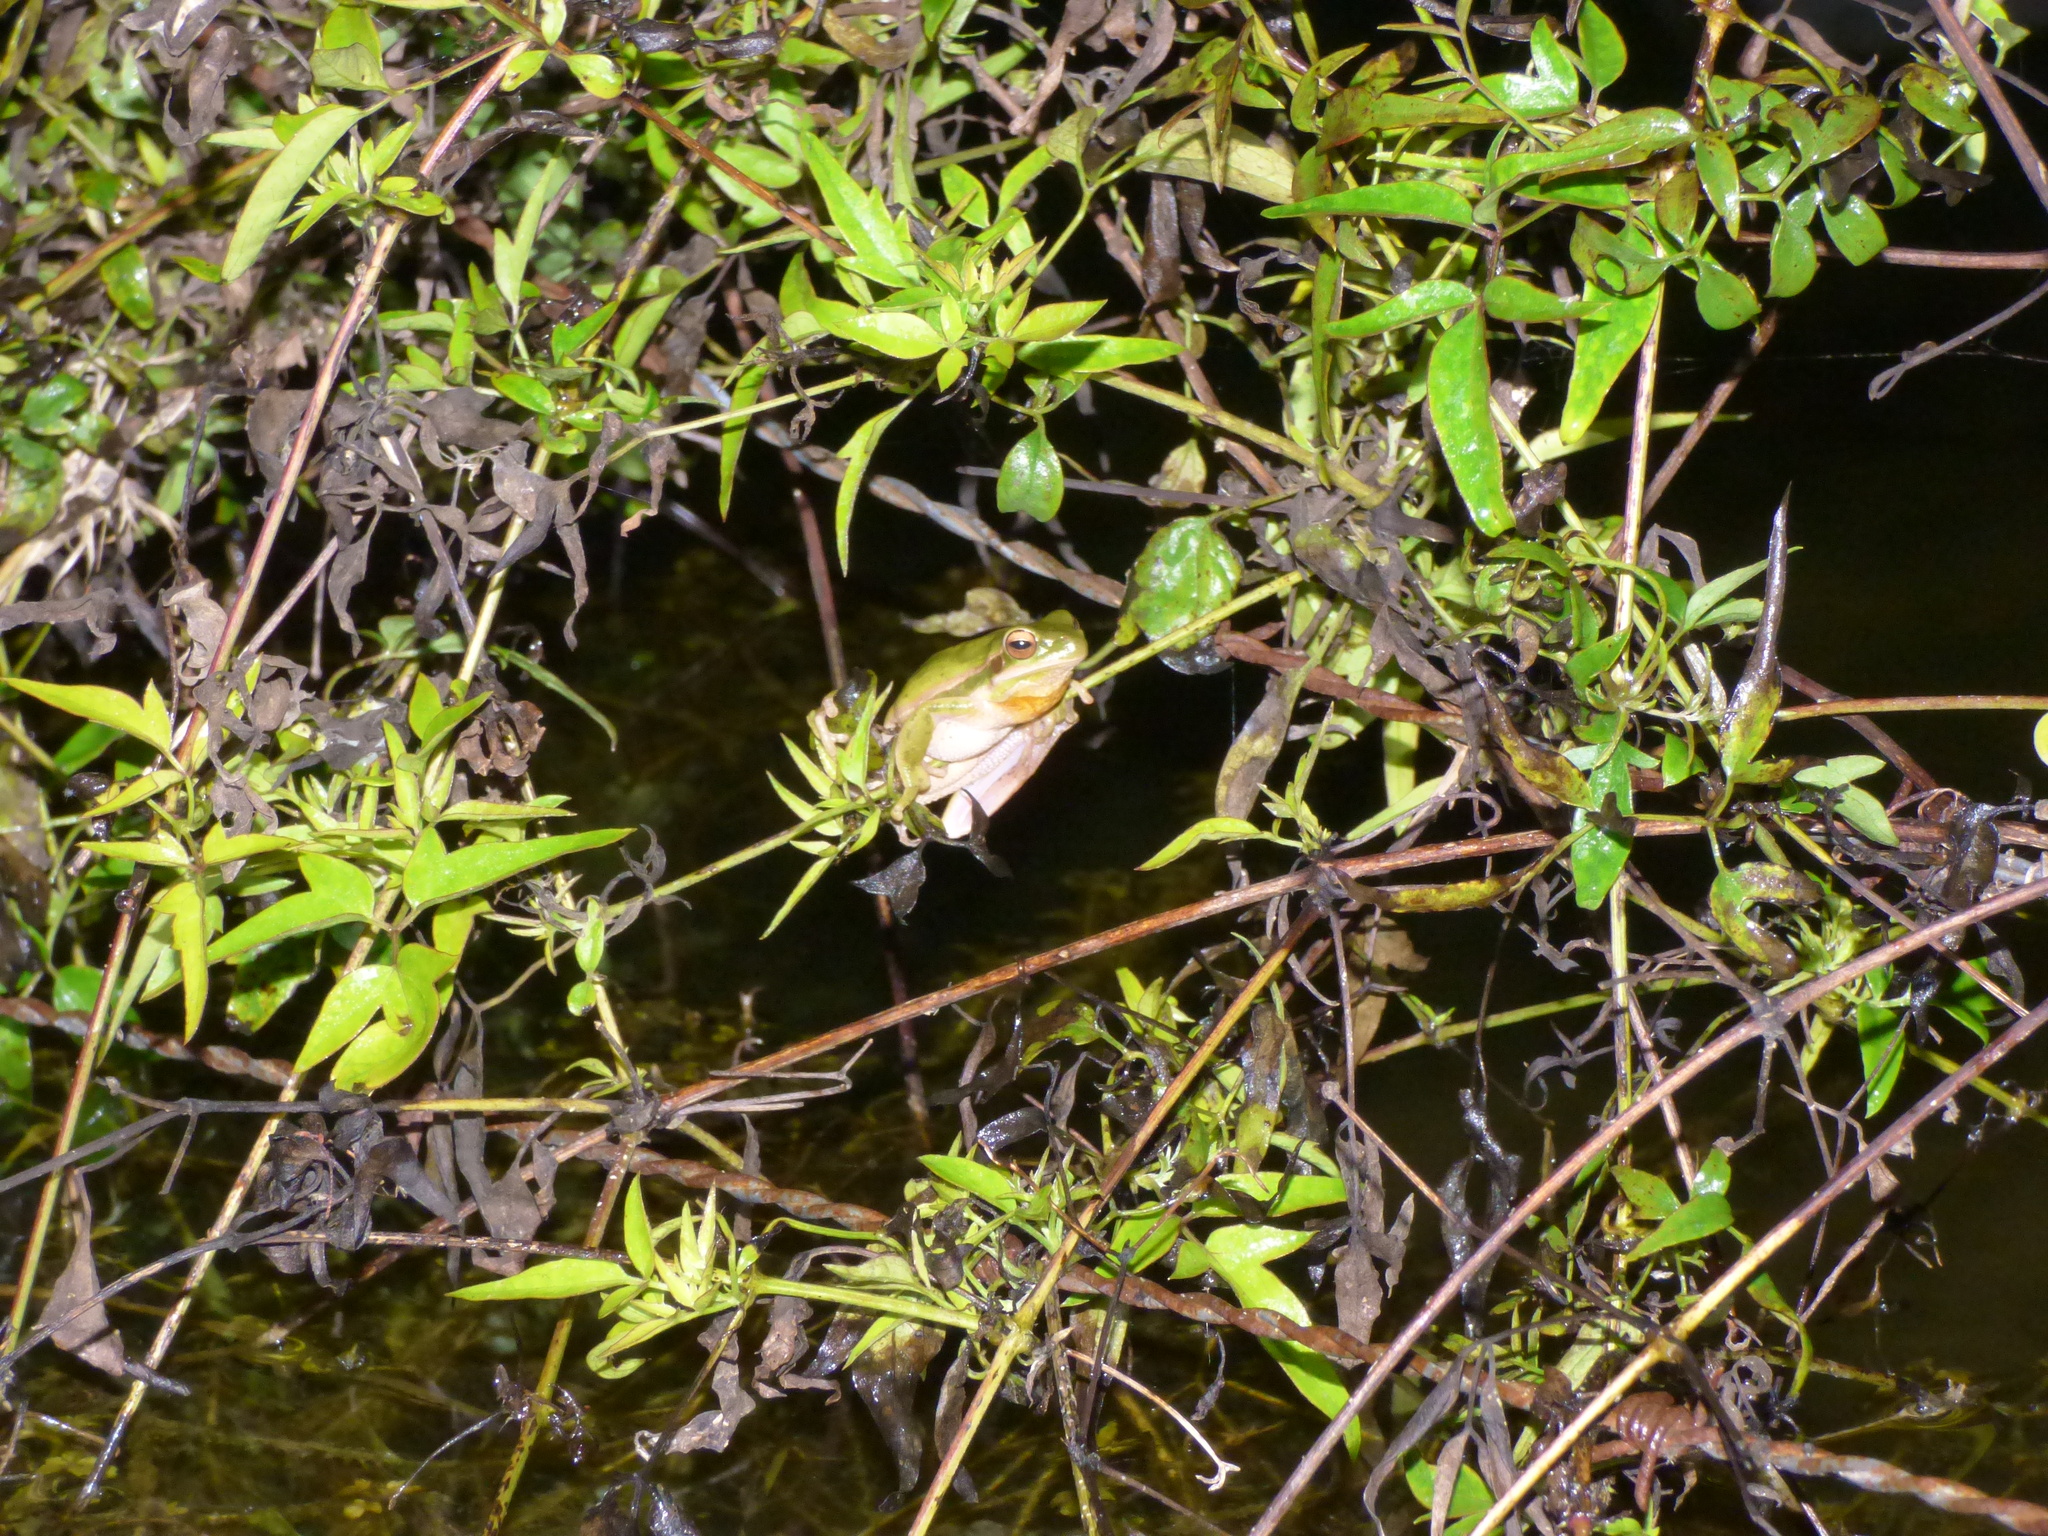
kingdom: Animalia
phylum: Chordata
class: Amphibia
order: Anura
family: Hylidae
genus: Boana
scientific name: Boana pulchella
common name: Montevideo treefrog
